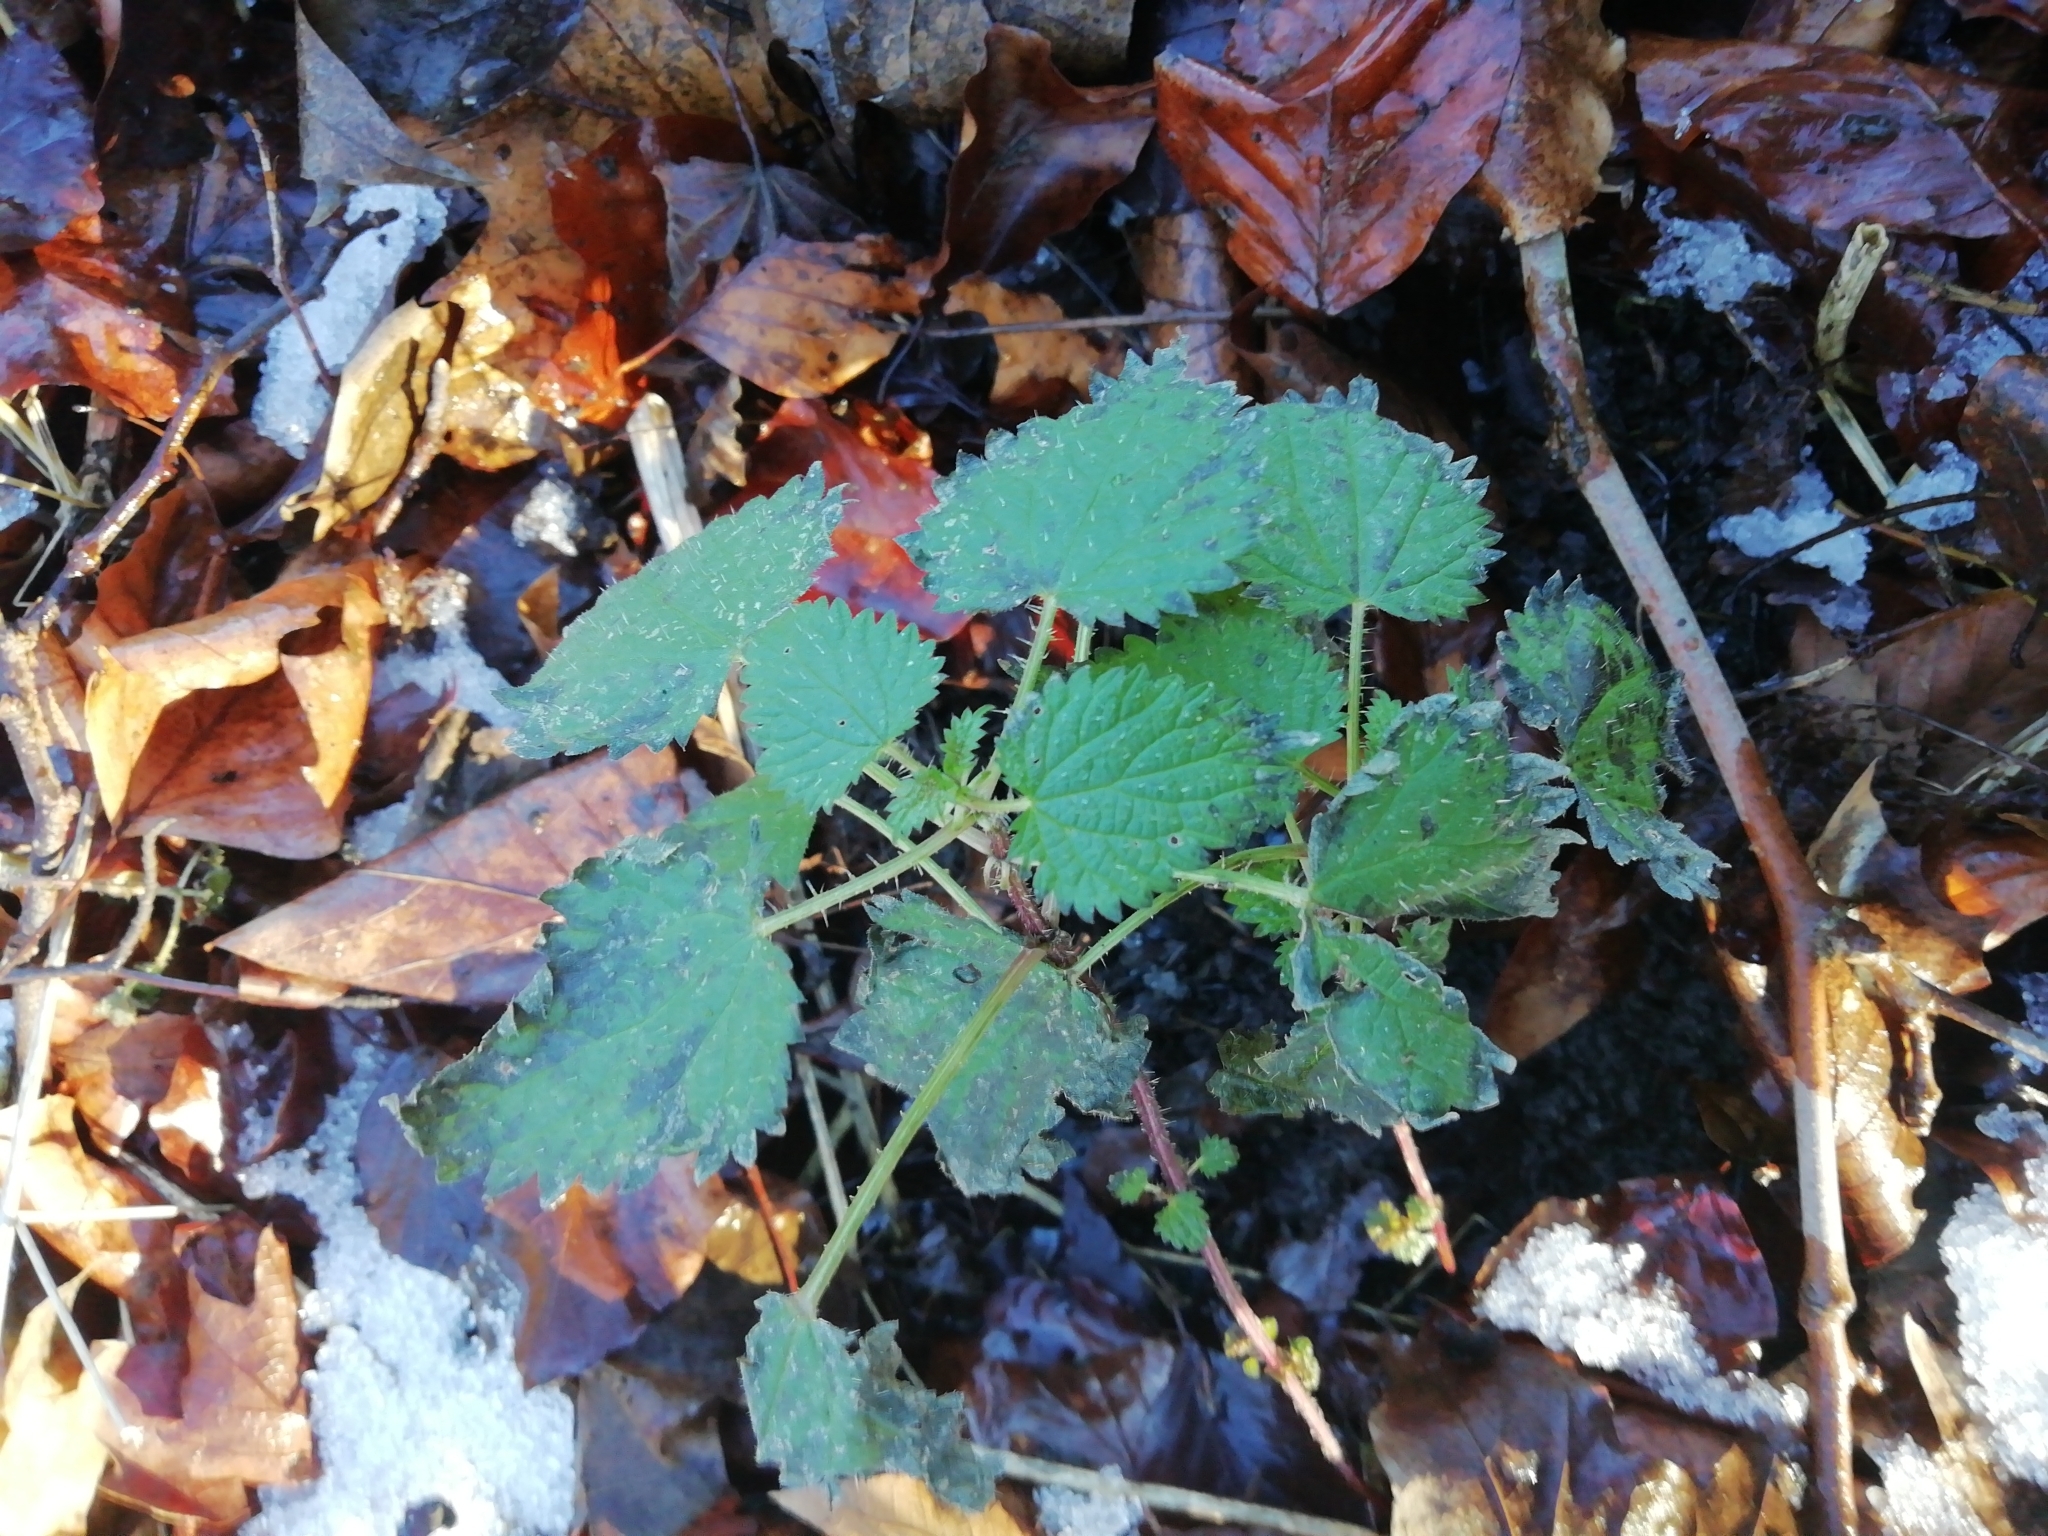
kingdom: Plantae
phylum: Tracheophyta
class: Magnoliopsida
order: Rosales
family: Urticaceae
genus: Urtica
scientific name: Urtica dioica
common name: Common nettle
